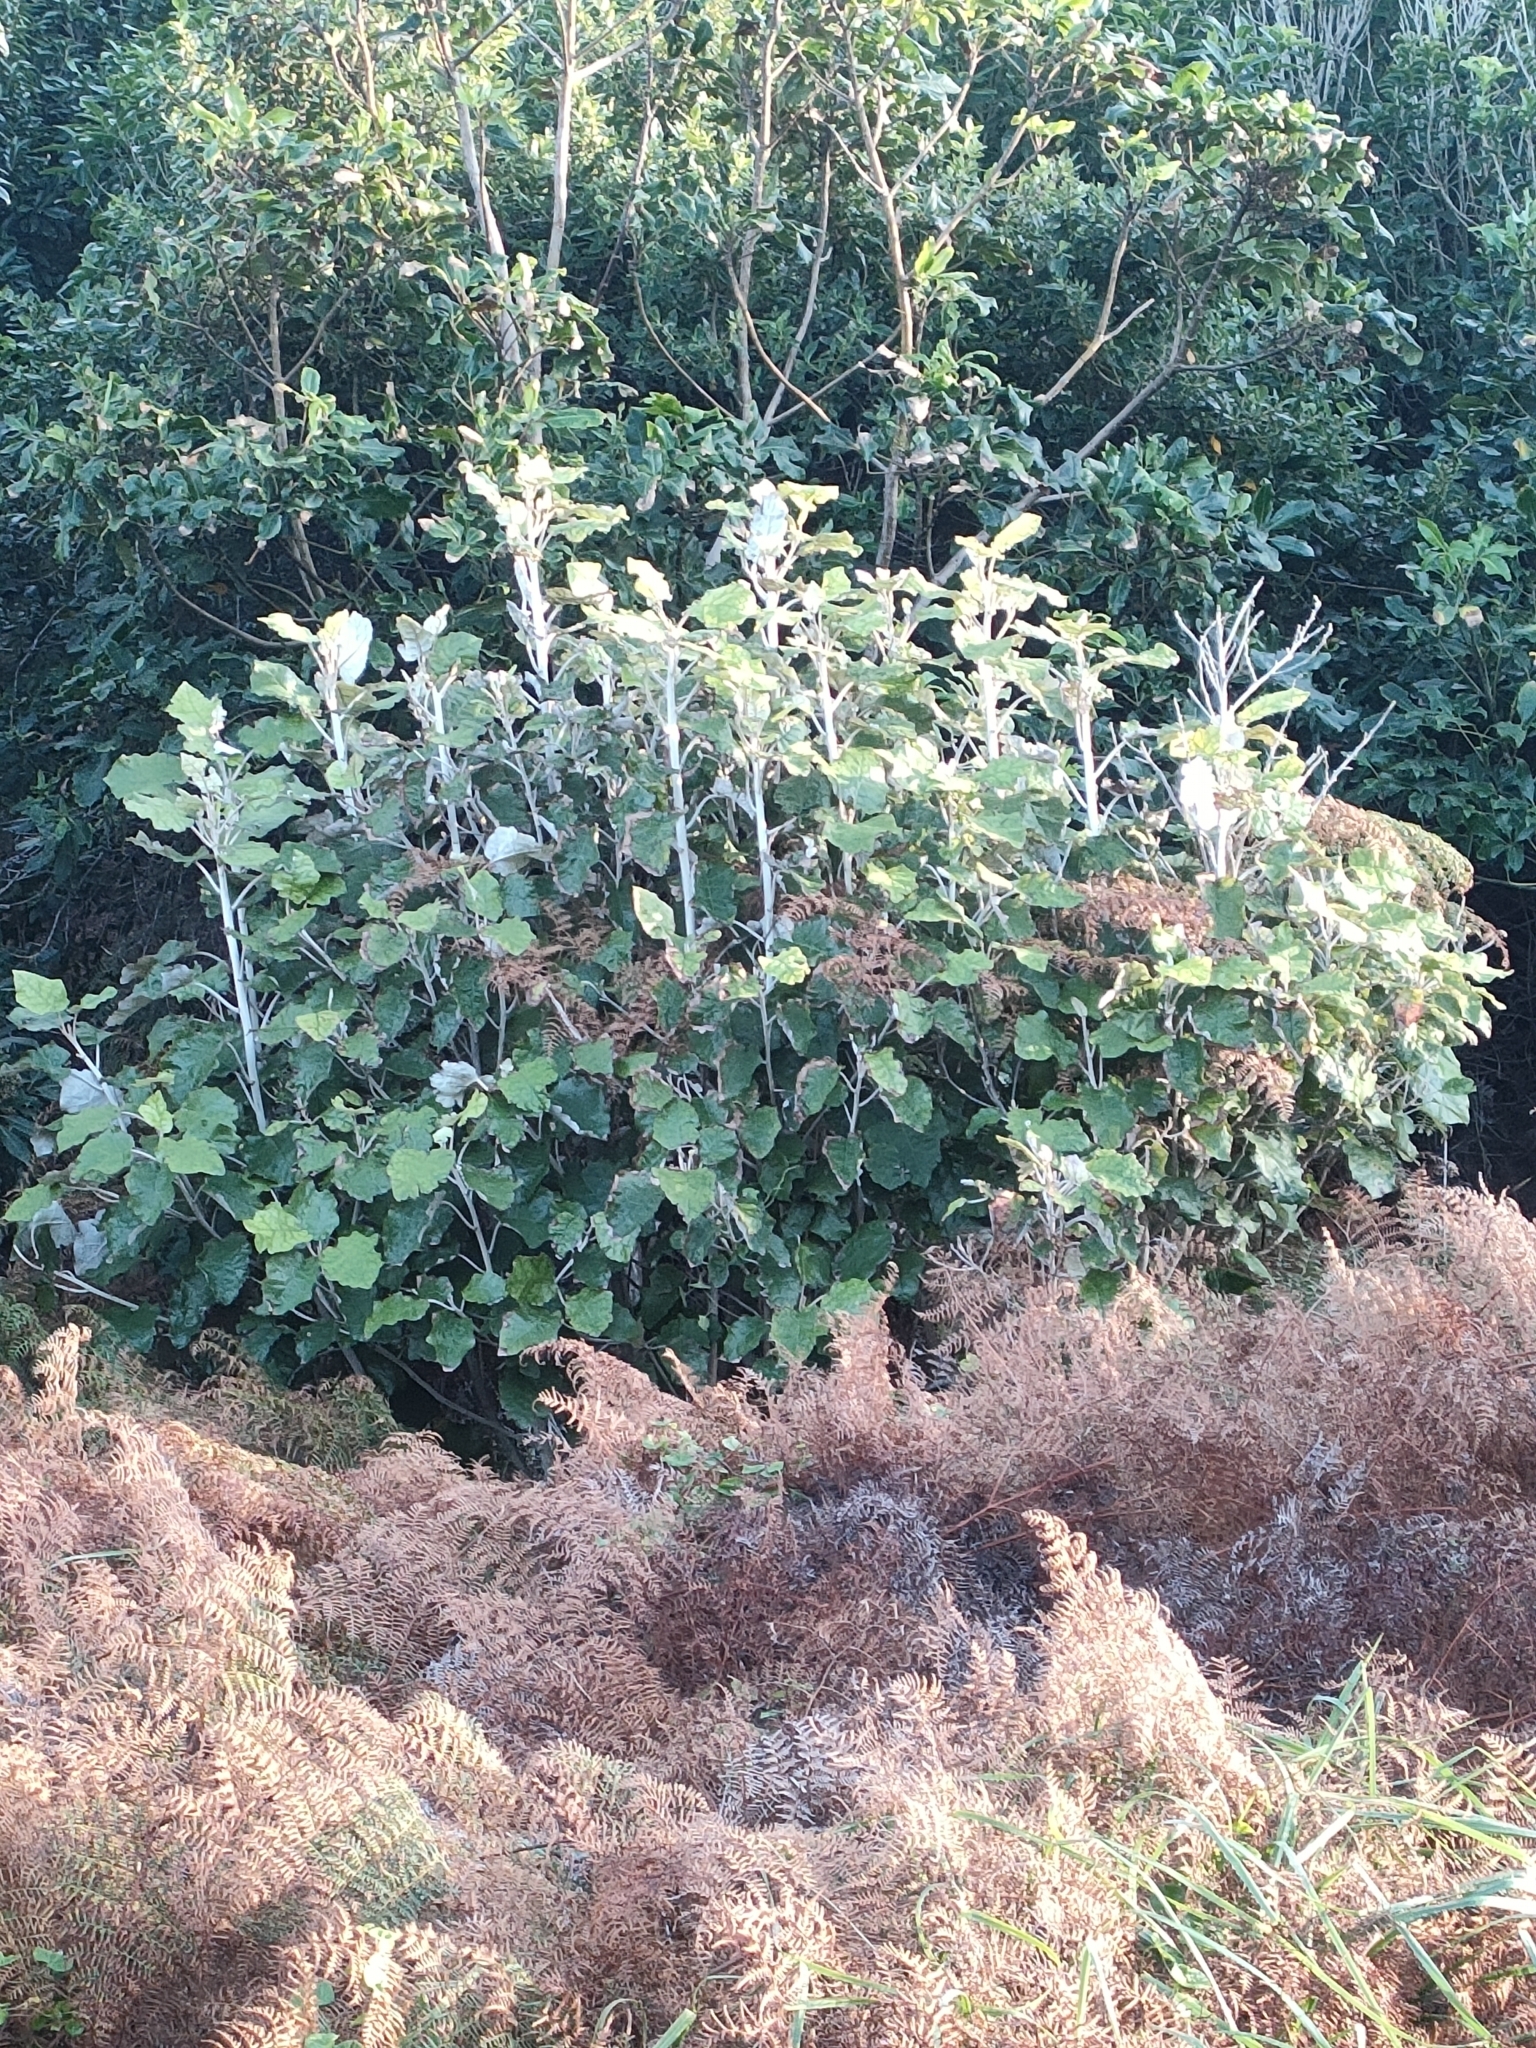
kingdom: Plantae
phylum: Tracheophyta
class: Magnoliopsida
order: Asterales
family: Asteraceae
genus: Brachyglottis
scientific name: Brachyglottis repanda
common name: Hedge ragwort
